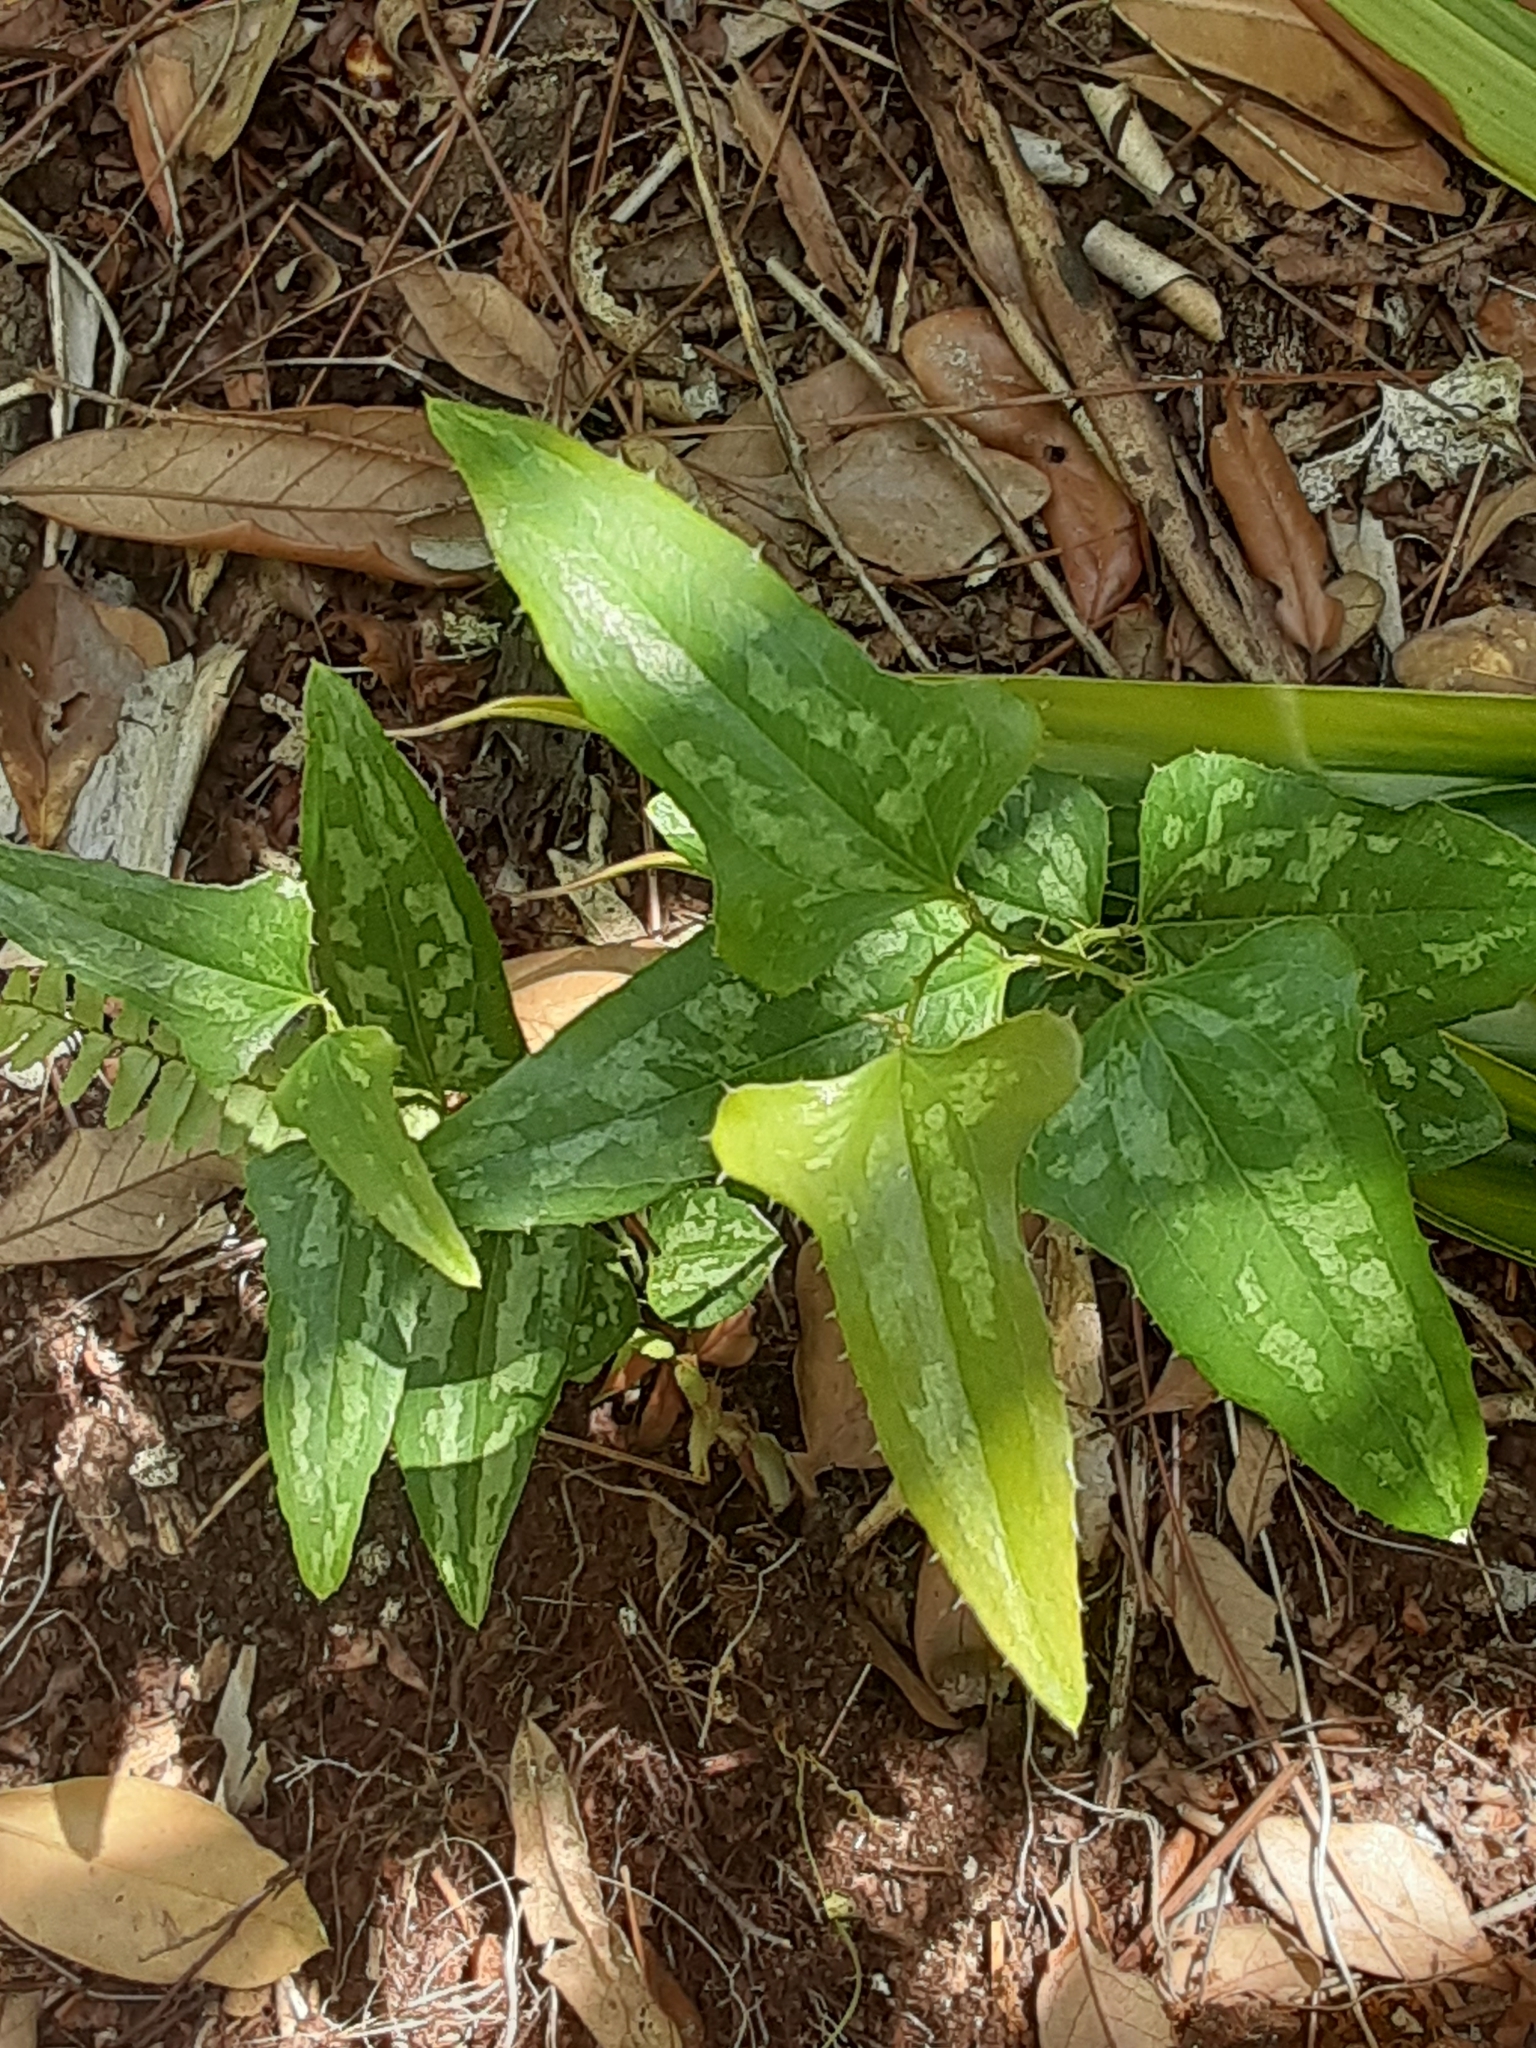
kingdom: Plantae
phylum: Tracheophyta
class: Liliopsida
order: Liliales
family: Smilacaceae
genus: Smilax
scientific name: Smilax bona-nox
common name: Catbrier
